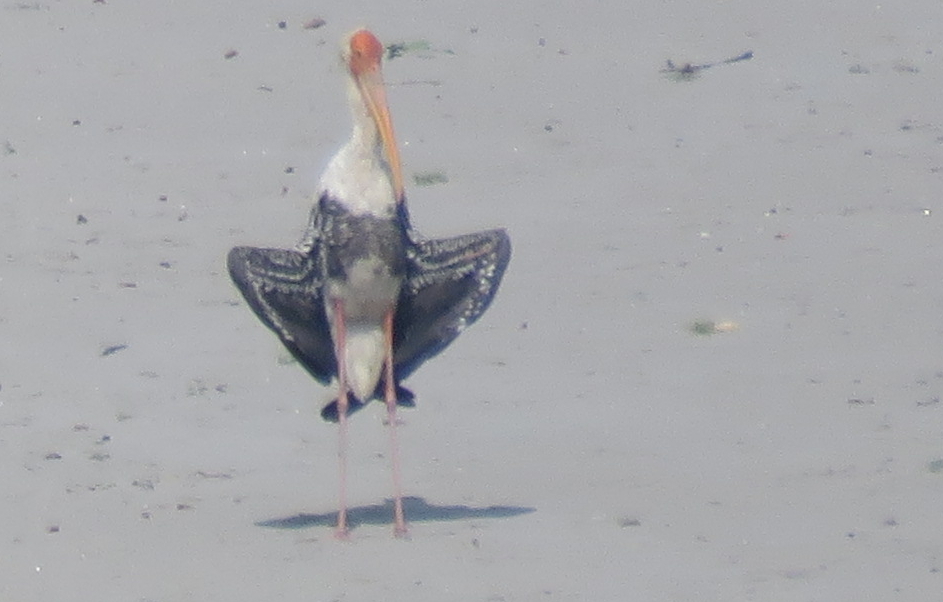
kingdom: Animalia
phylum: Chordata
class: Aves
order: Ciconiiformes
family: Ciconiidae
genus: Mycteria
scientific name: Mycteria leucocephala
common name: Painted stork
